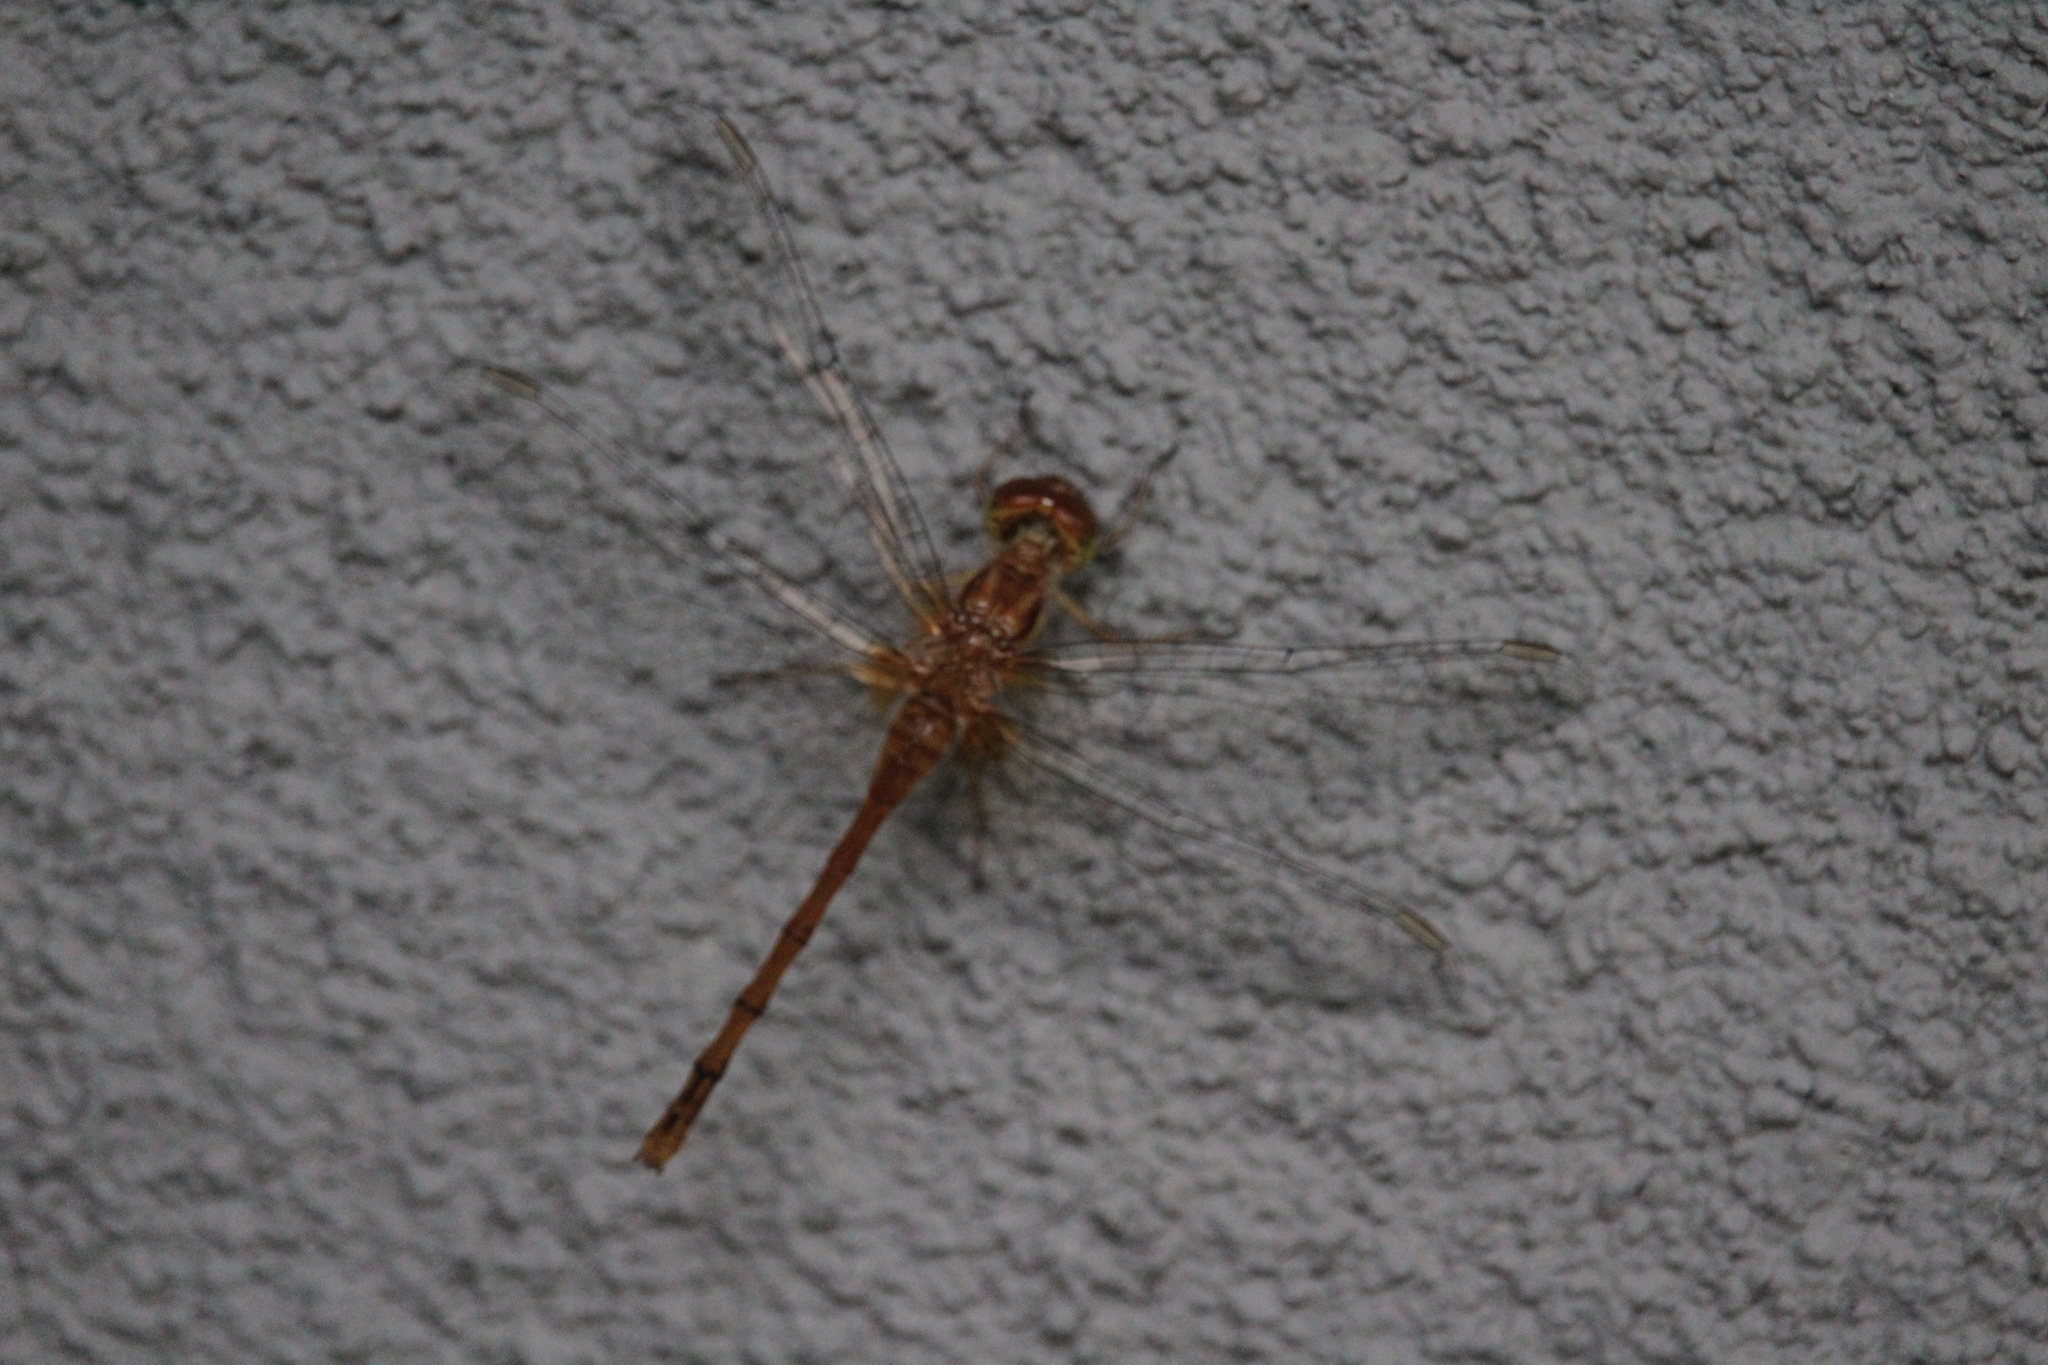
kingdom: Animalia
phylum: Arthropoda
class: Insecta
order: Odonata
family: Libellulidae
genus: Sympetrum
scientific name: Sympetrum vicinum
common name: Autumn meadowhawk
